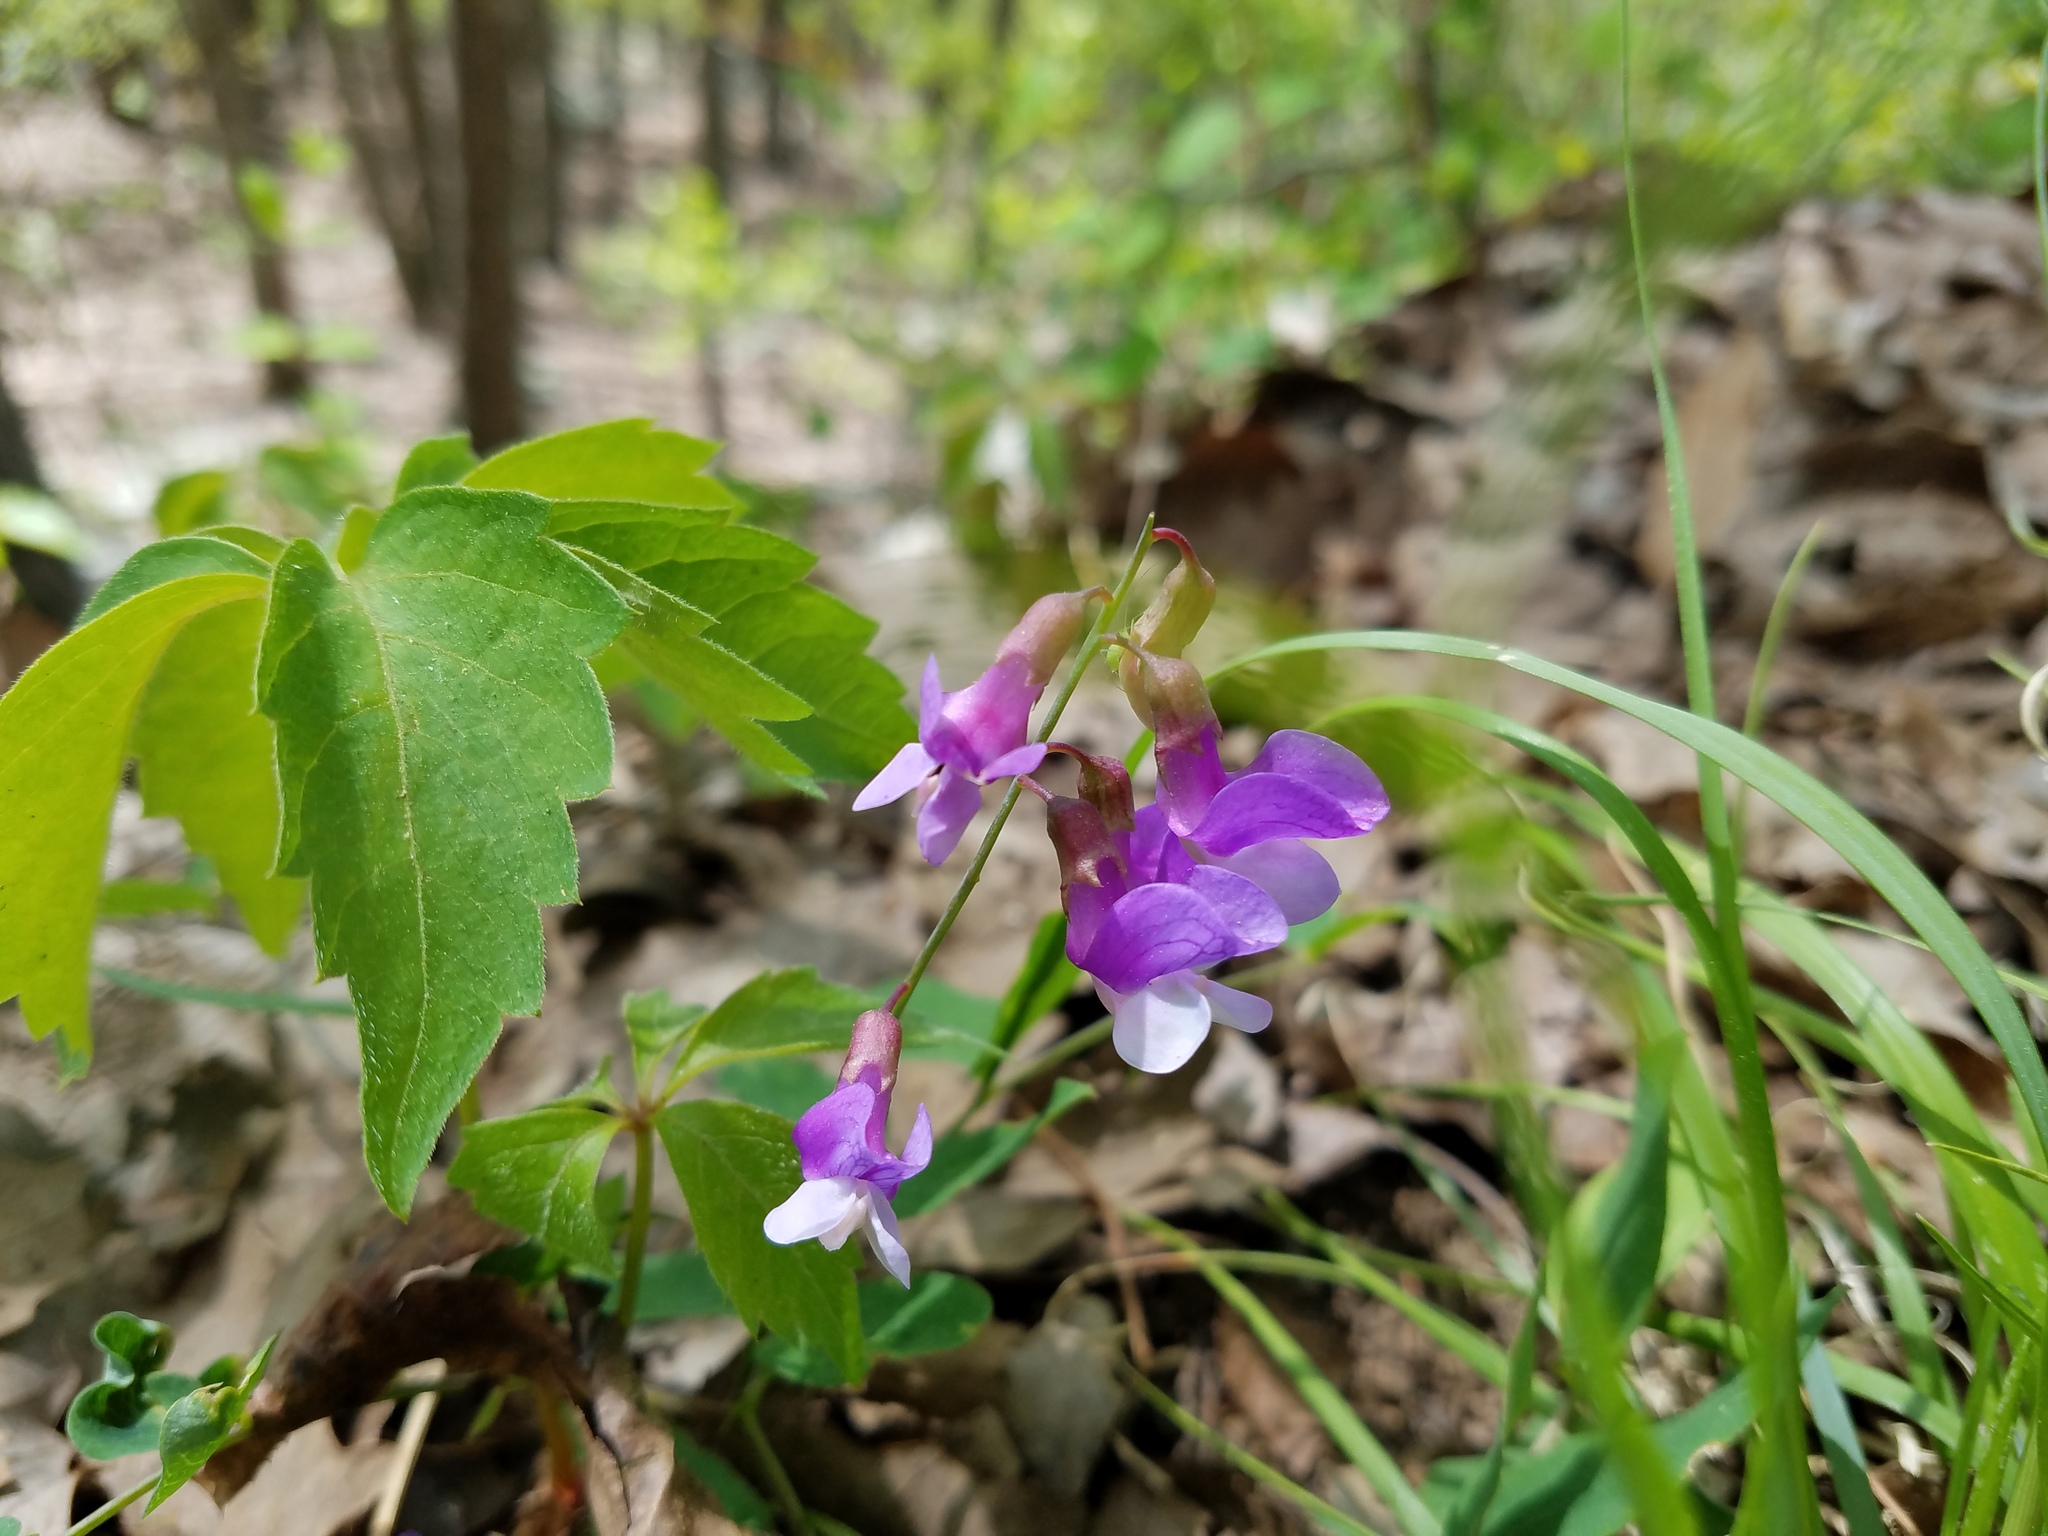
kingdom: Plantae
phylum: Tracheophyta
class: Magnoliopsida
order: Fabales
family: Fabaceae
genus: Lathyrus
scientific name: Lathyrus venosus
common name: Forest-pea
